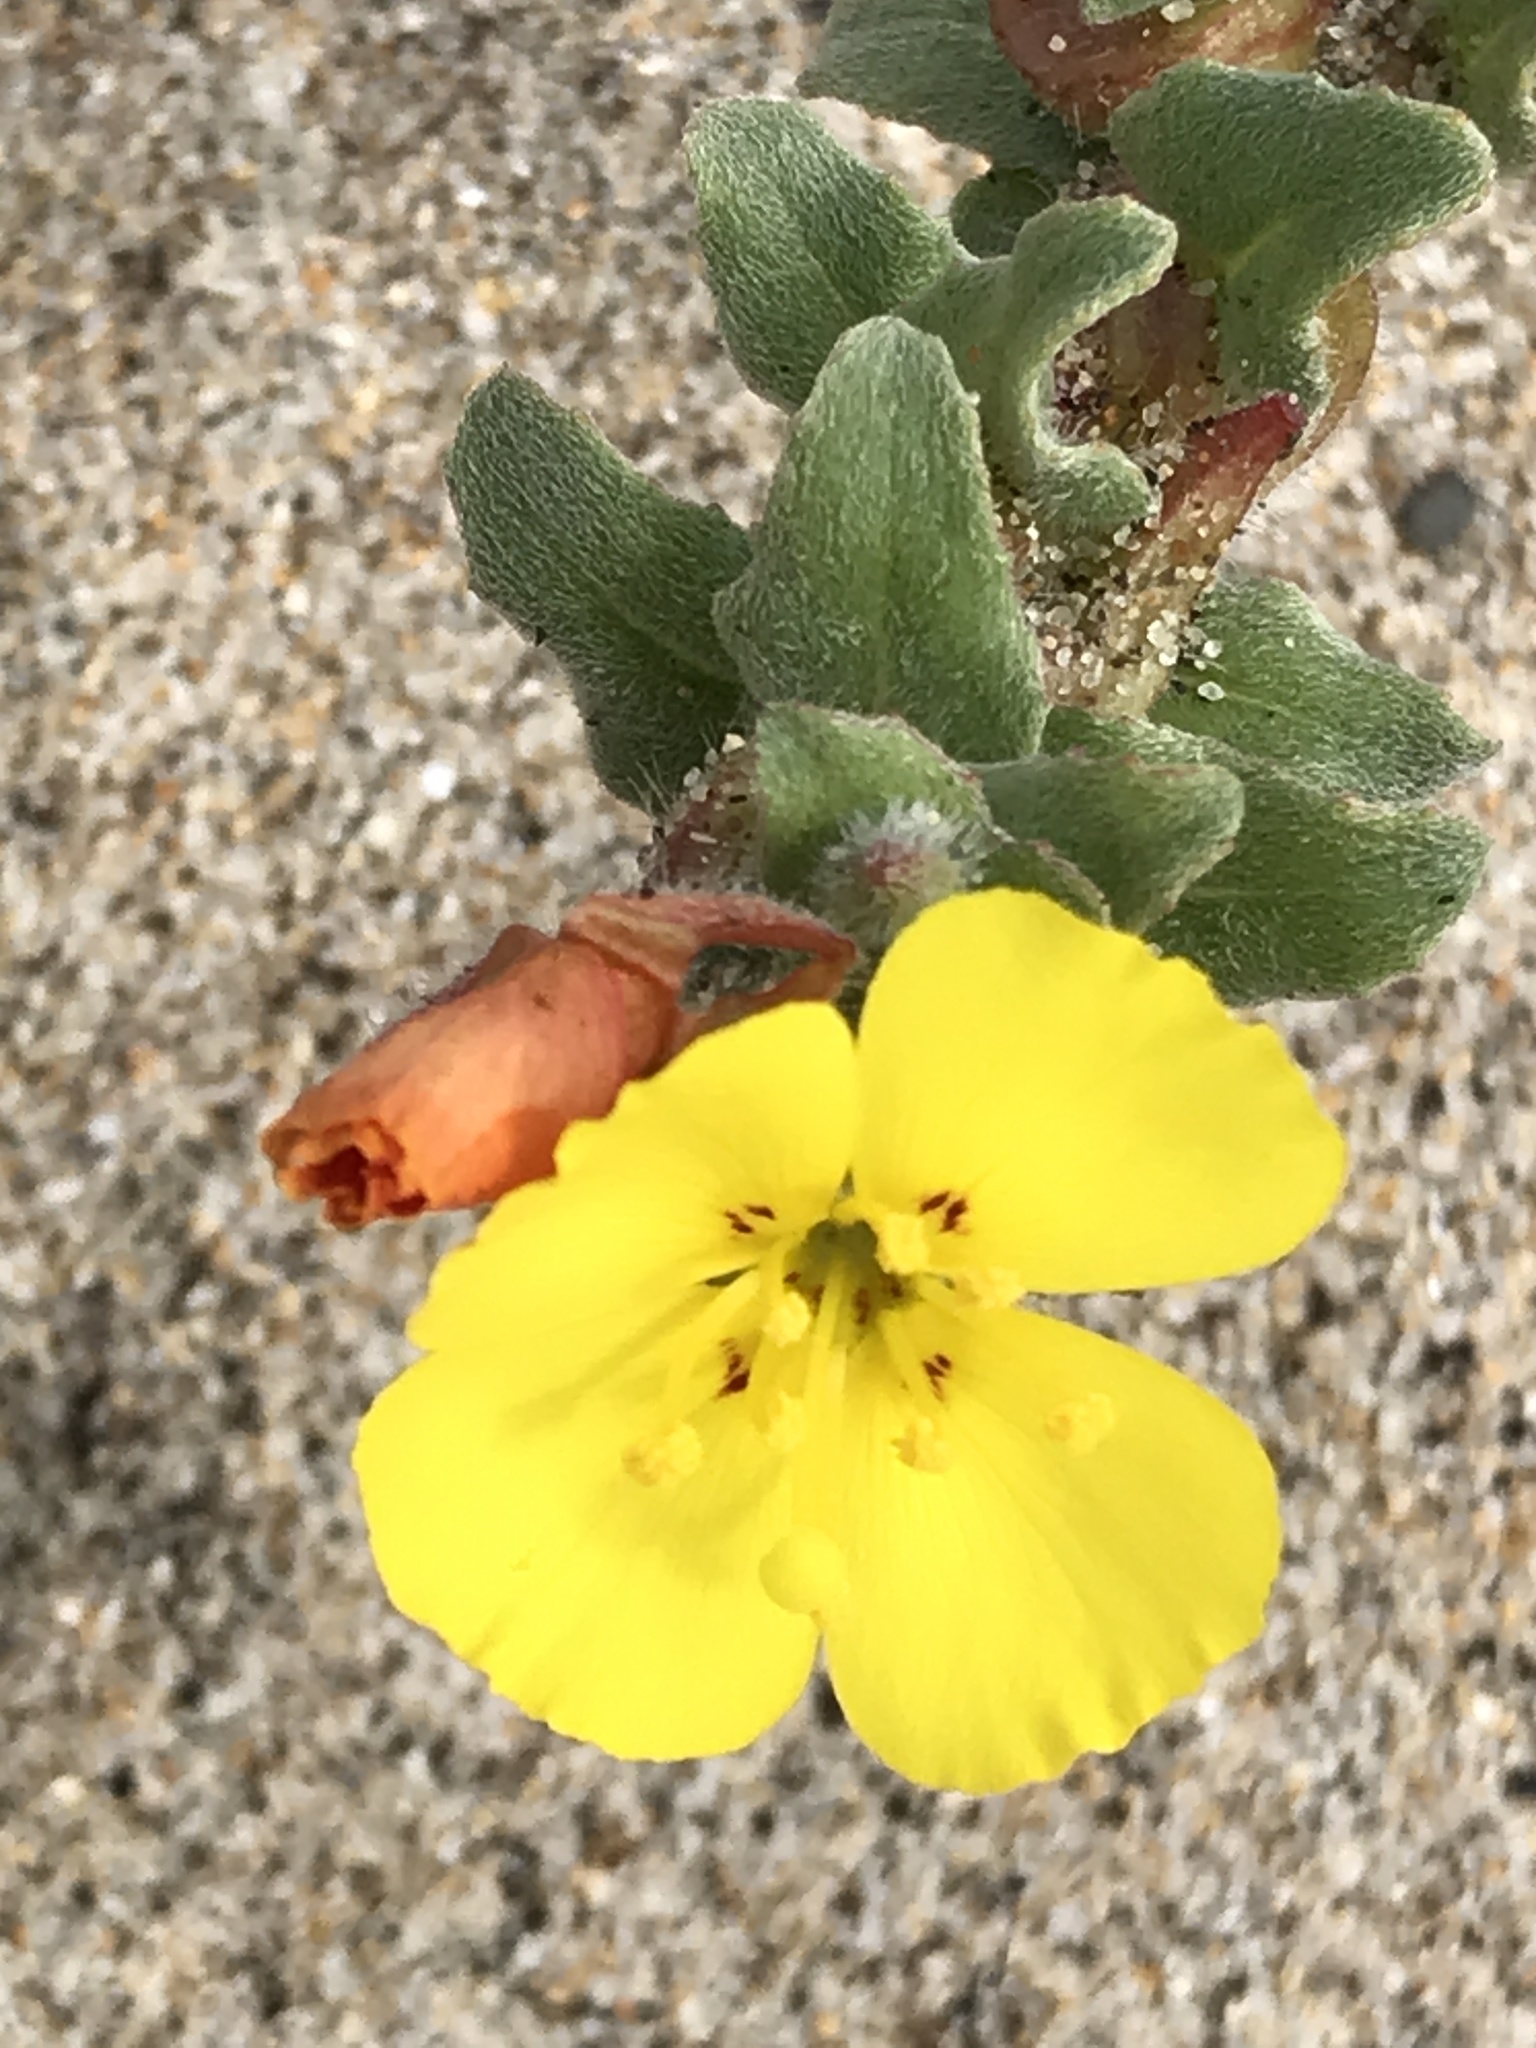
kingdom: Plantae
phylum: Tracheophyta
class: Magnoliopsida
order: Myrtales
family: Onagraceae
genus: Camissoniopsis
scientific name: Camissoniopsis cheiranthifolia
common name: Beach suncup
